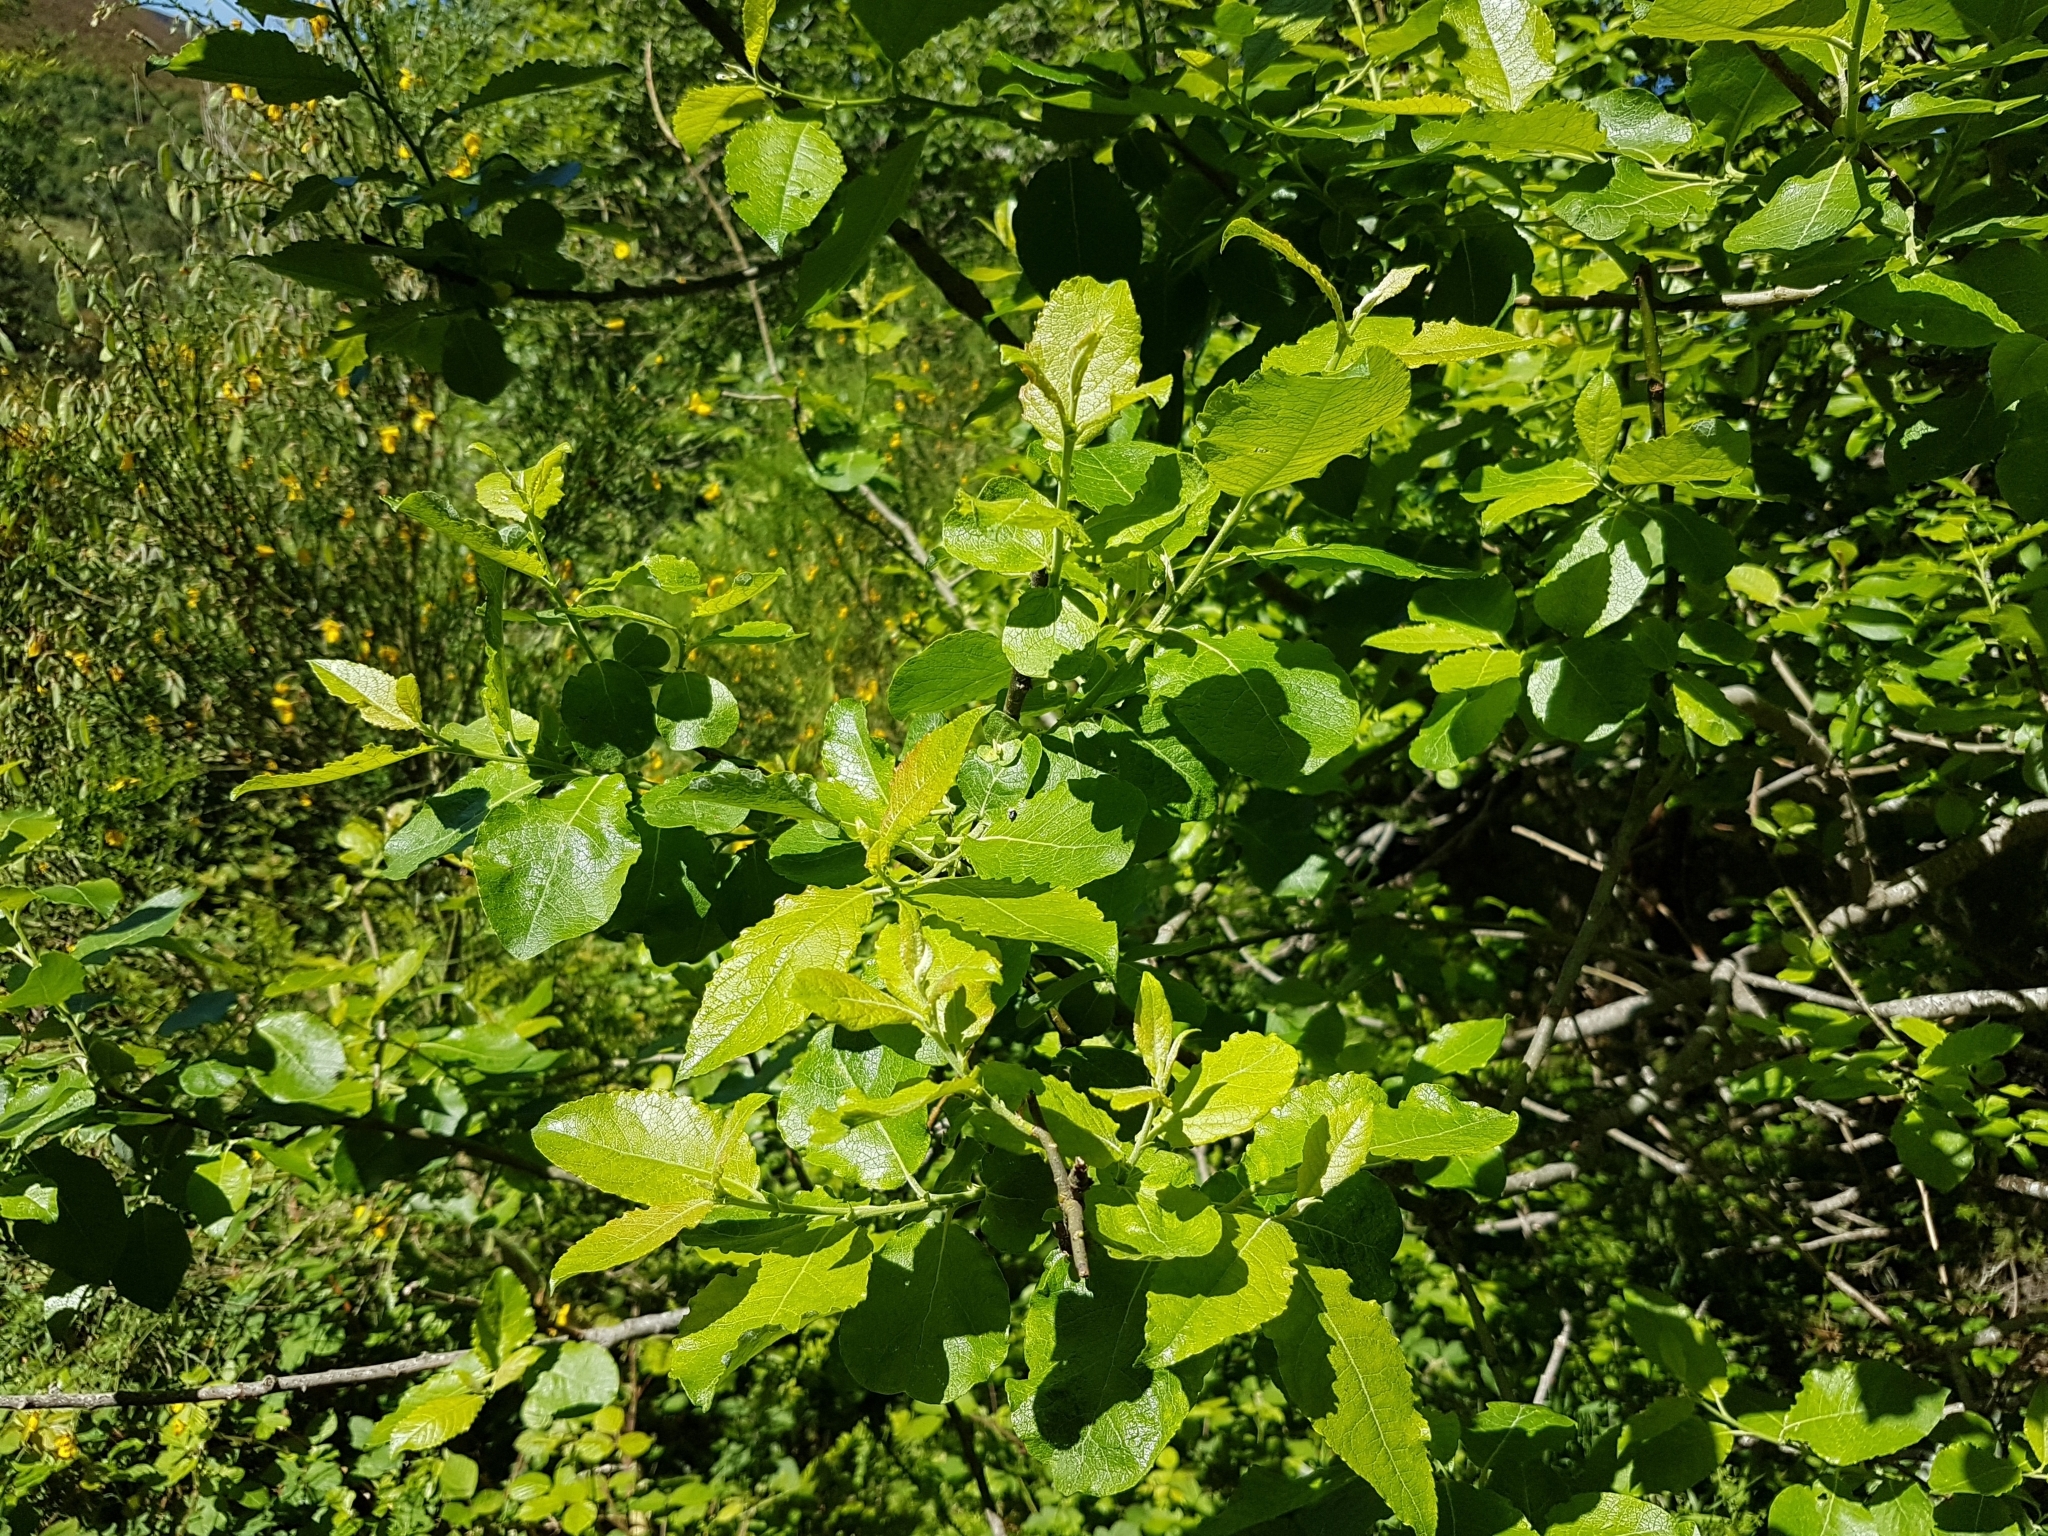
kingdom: Plantae
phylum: Tracheophyta
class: Magnoliopsida
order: Malpighiales
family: Salicaceae
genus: Salix
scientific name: Salix caprea
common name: Goat willow
